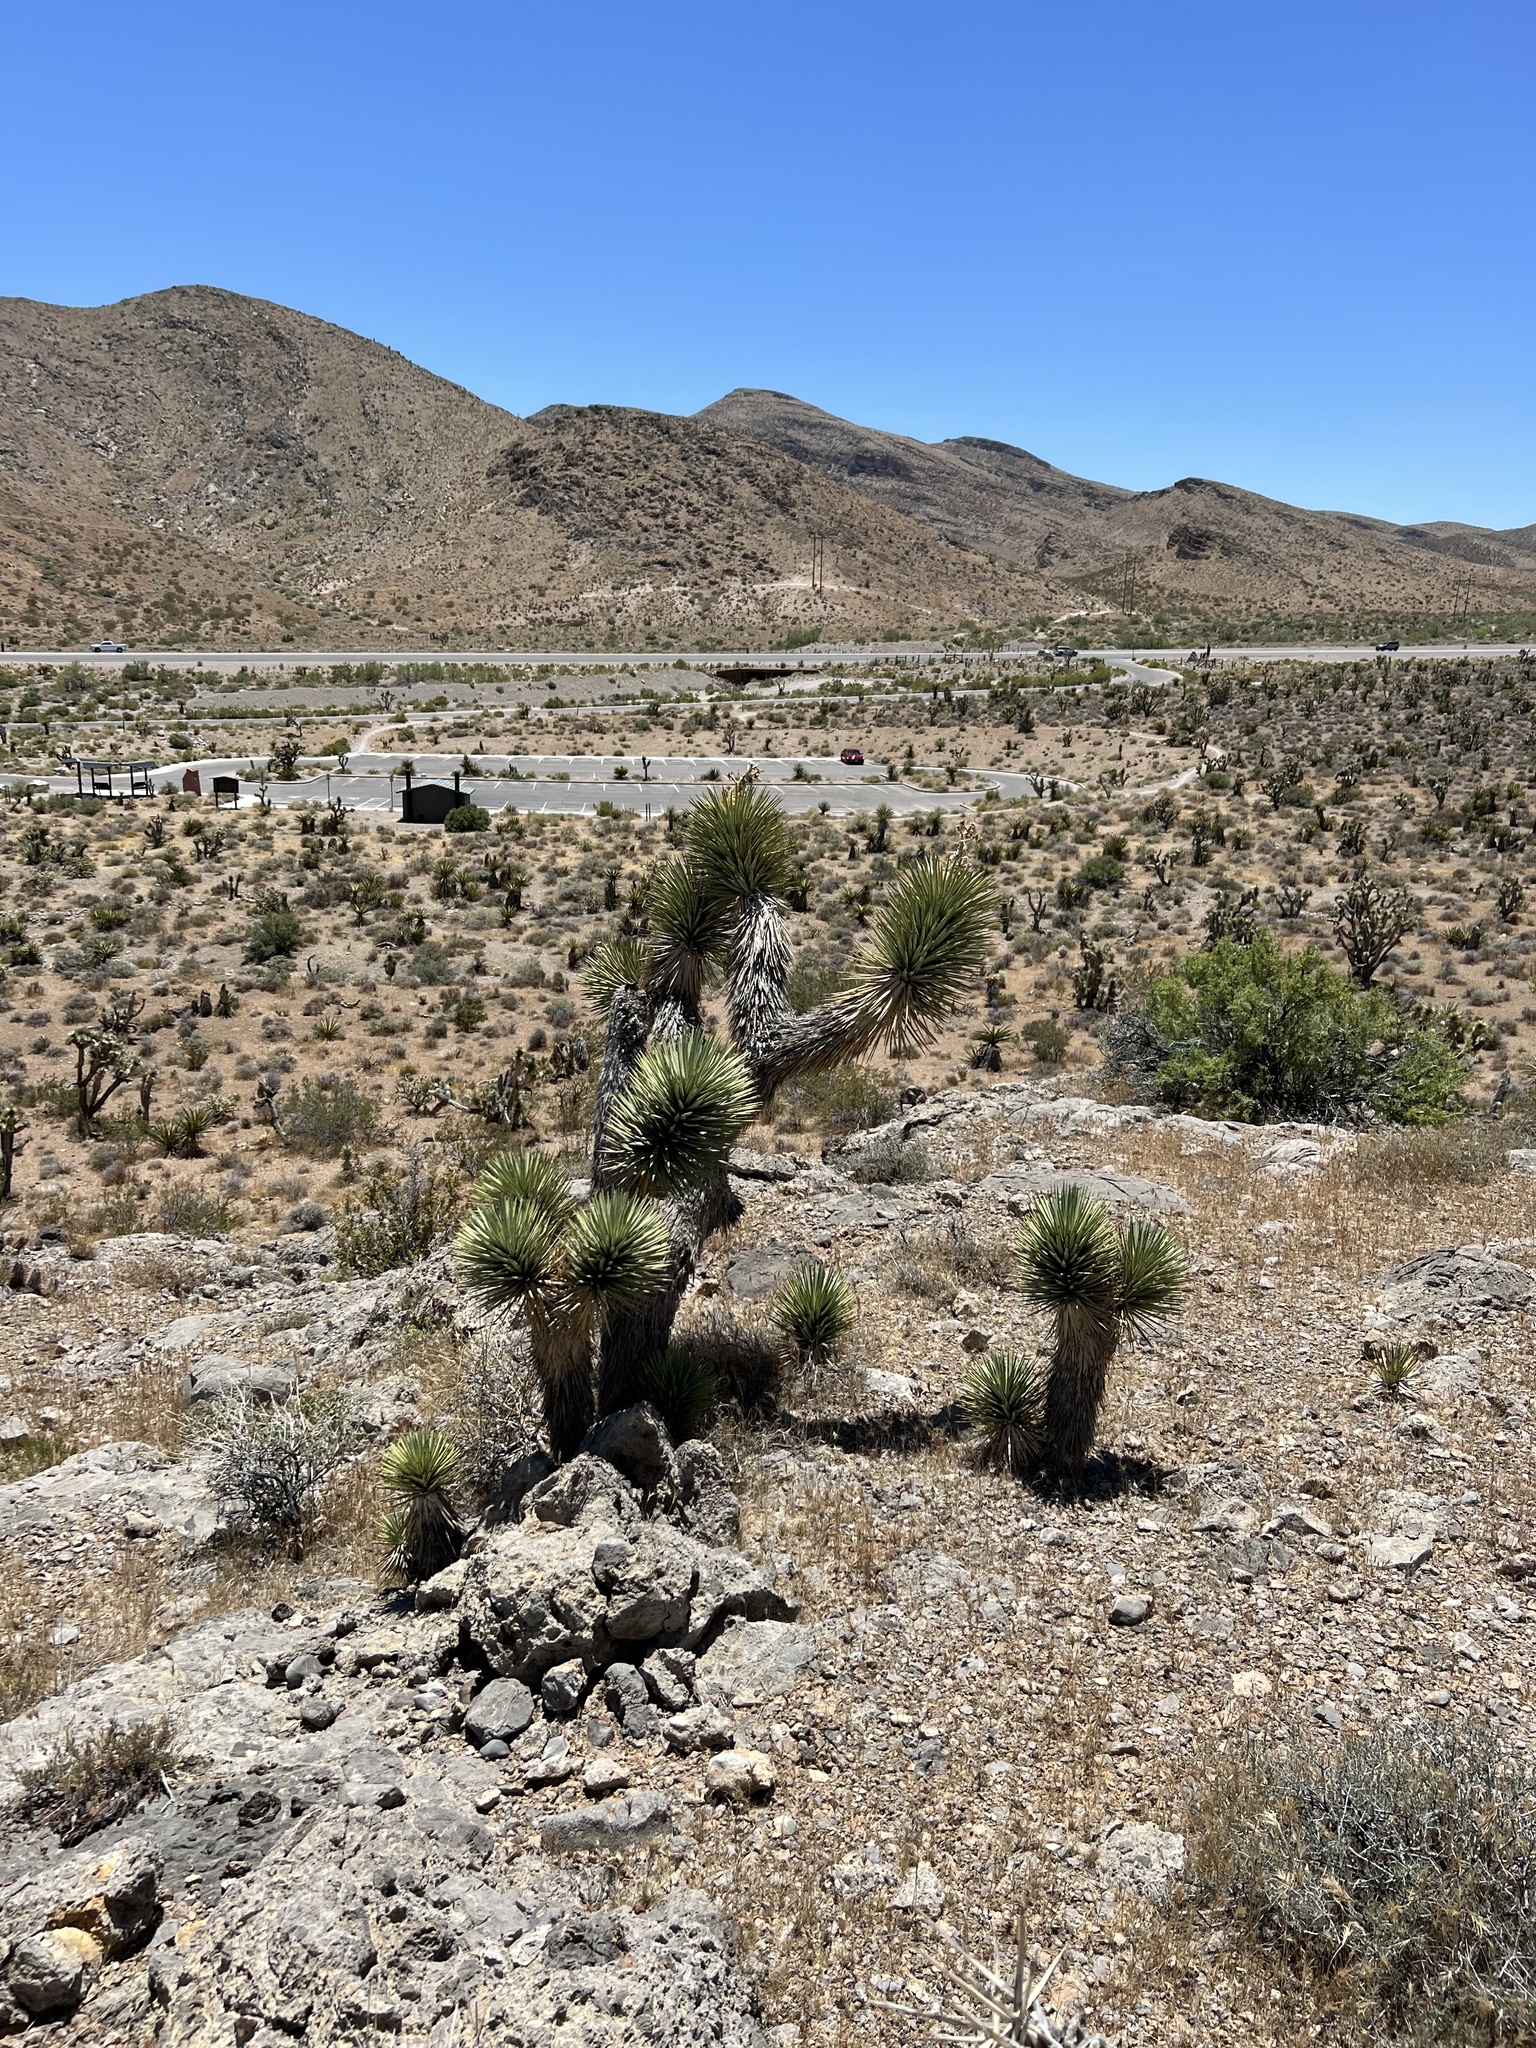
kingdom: Plantae
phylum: Tracheophyta
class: Liliopsida
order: Asparagales
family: Asparagaceae
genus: Yucca
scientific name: Yucca brevifolia
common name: Joshua tree
